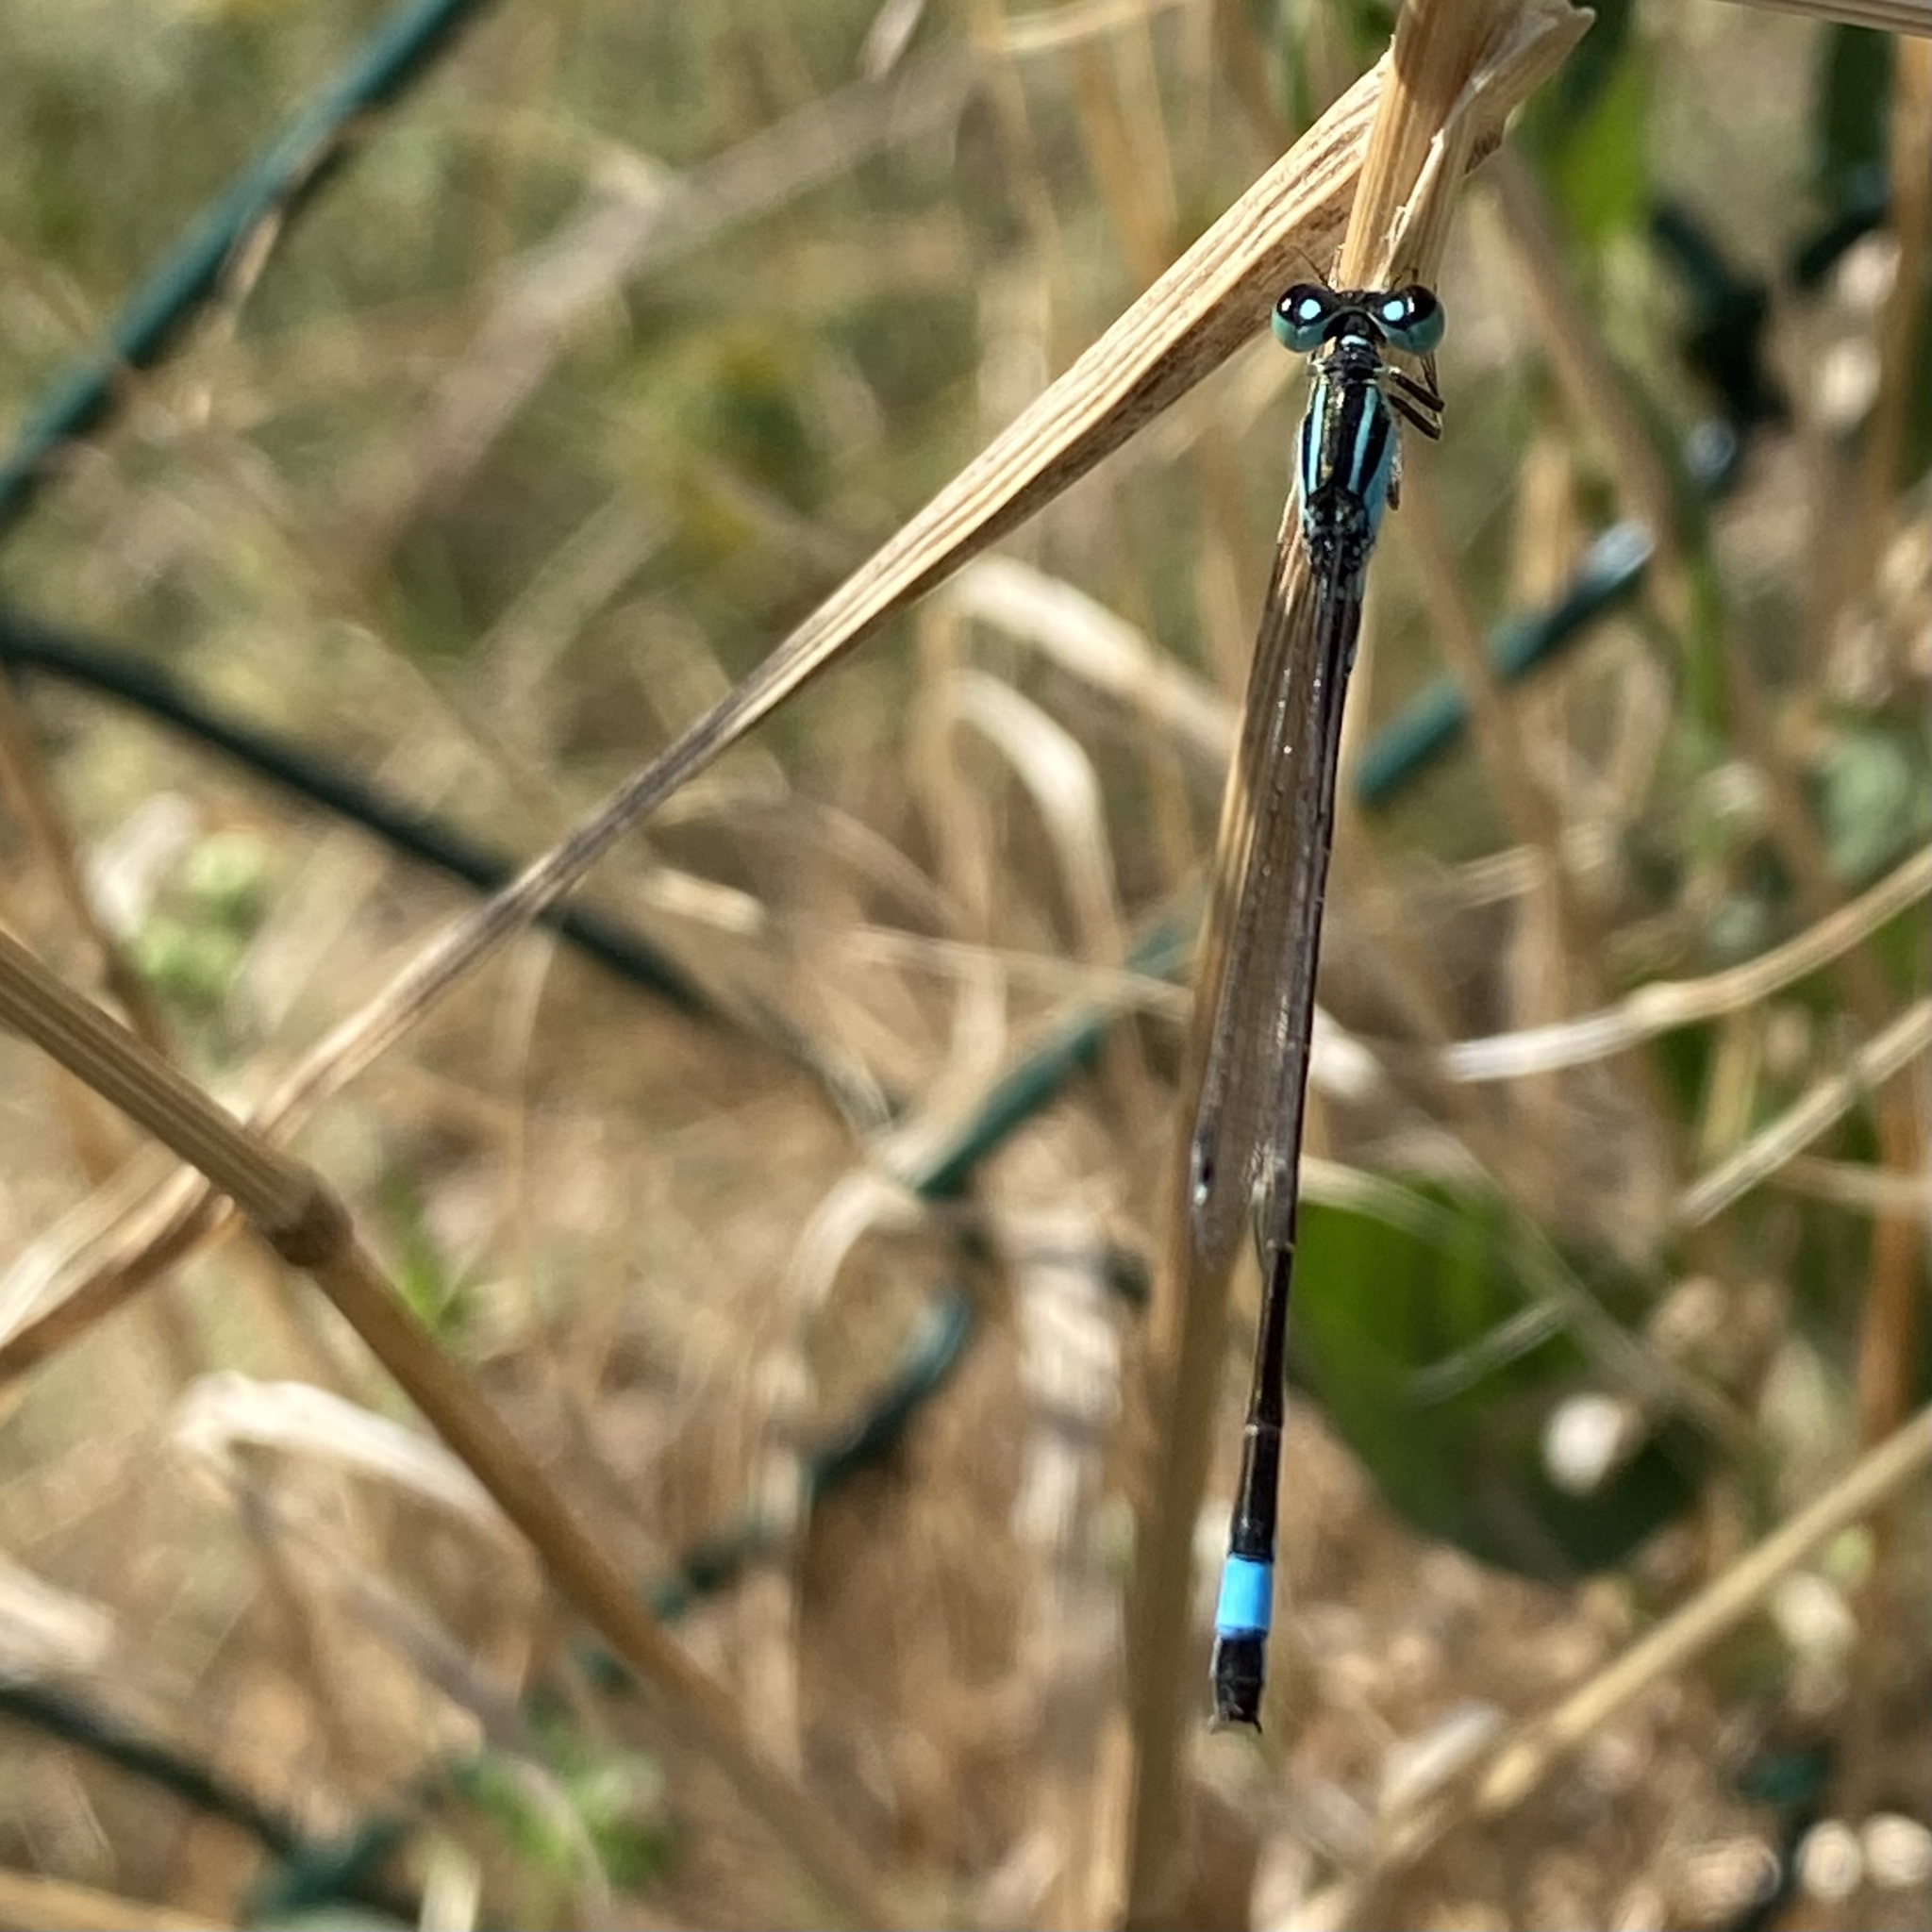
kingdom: Animalia
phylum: Arthropoda
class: Insecta
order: Odonata
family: Coenagrionidae
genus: Ischnura
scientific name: Ischnura elegans
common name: Blue-tailed damselfly
